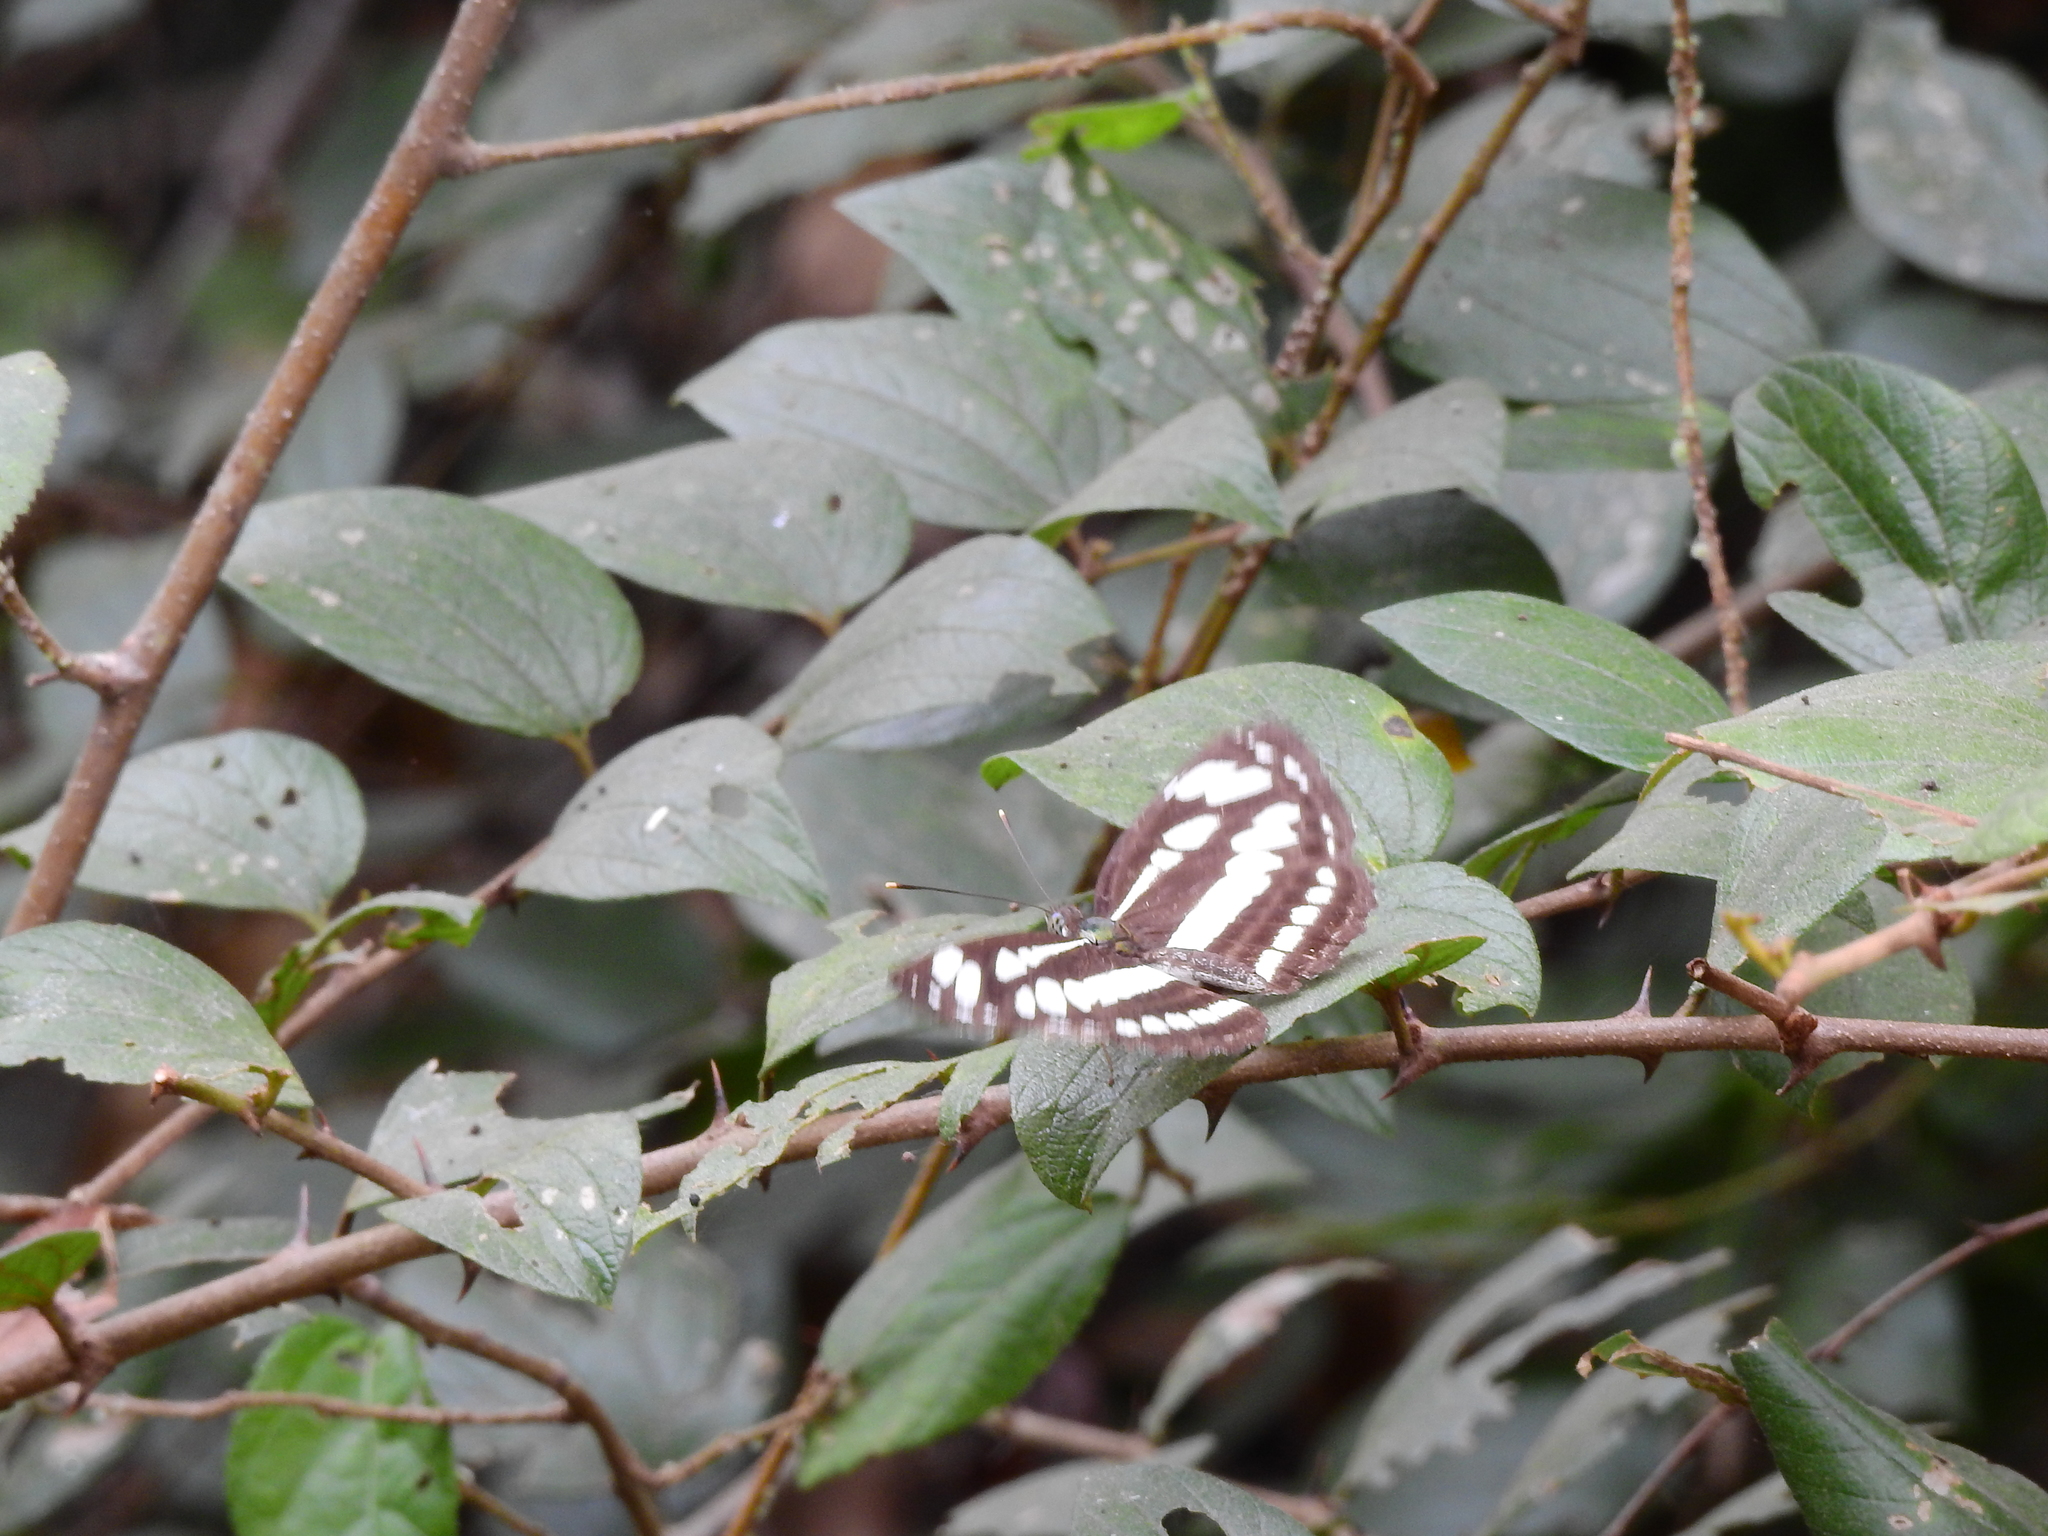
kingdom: Animalia
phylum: Arthropoda
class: Insecta
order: Lepidoptera
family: Nymphalidae
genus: Neptis
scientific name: Neptis hylas
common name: Common sailer
